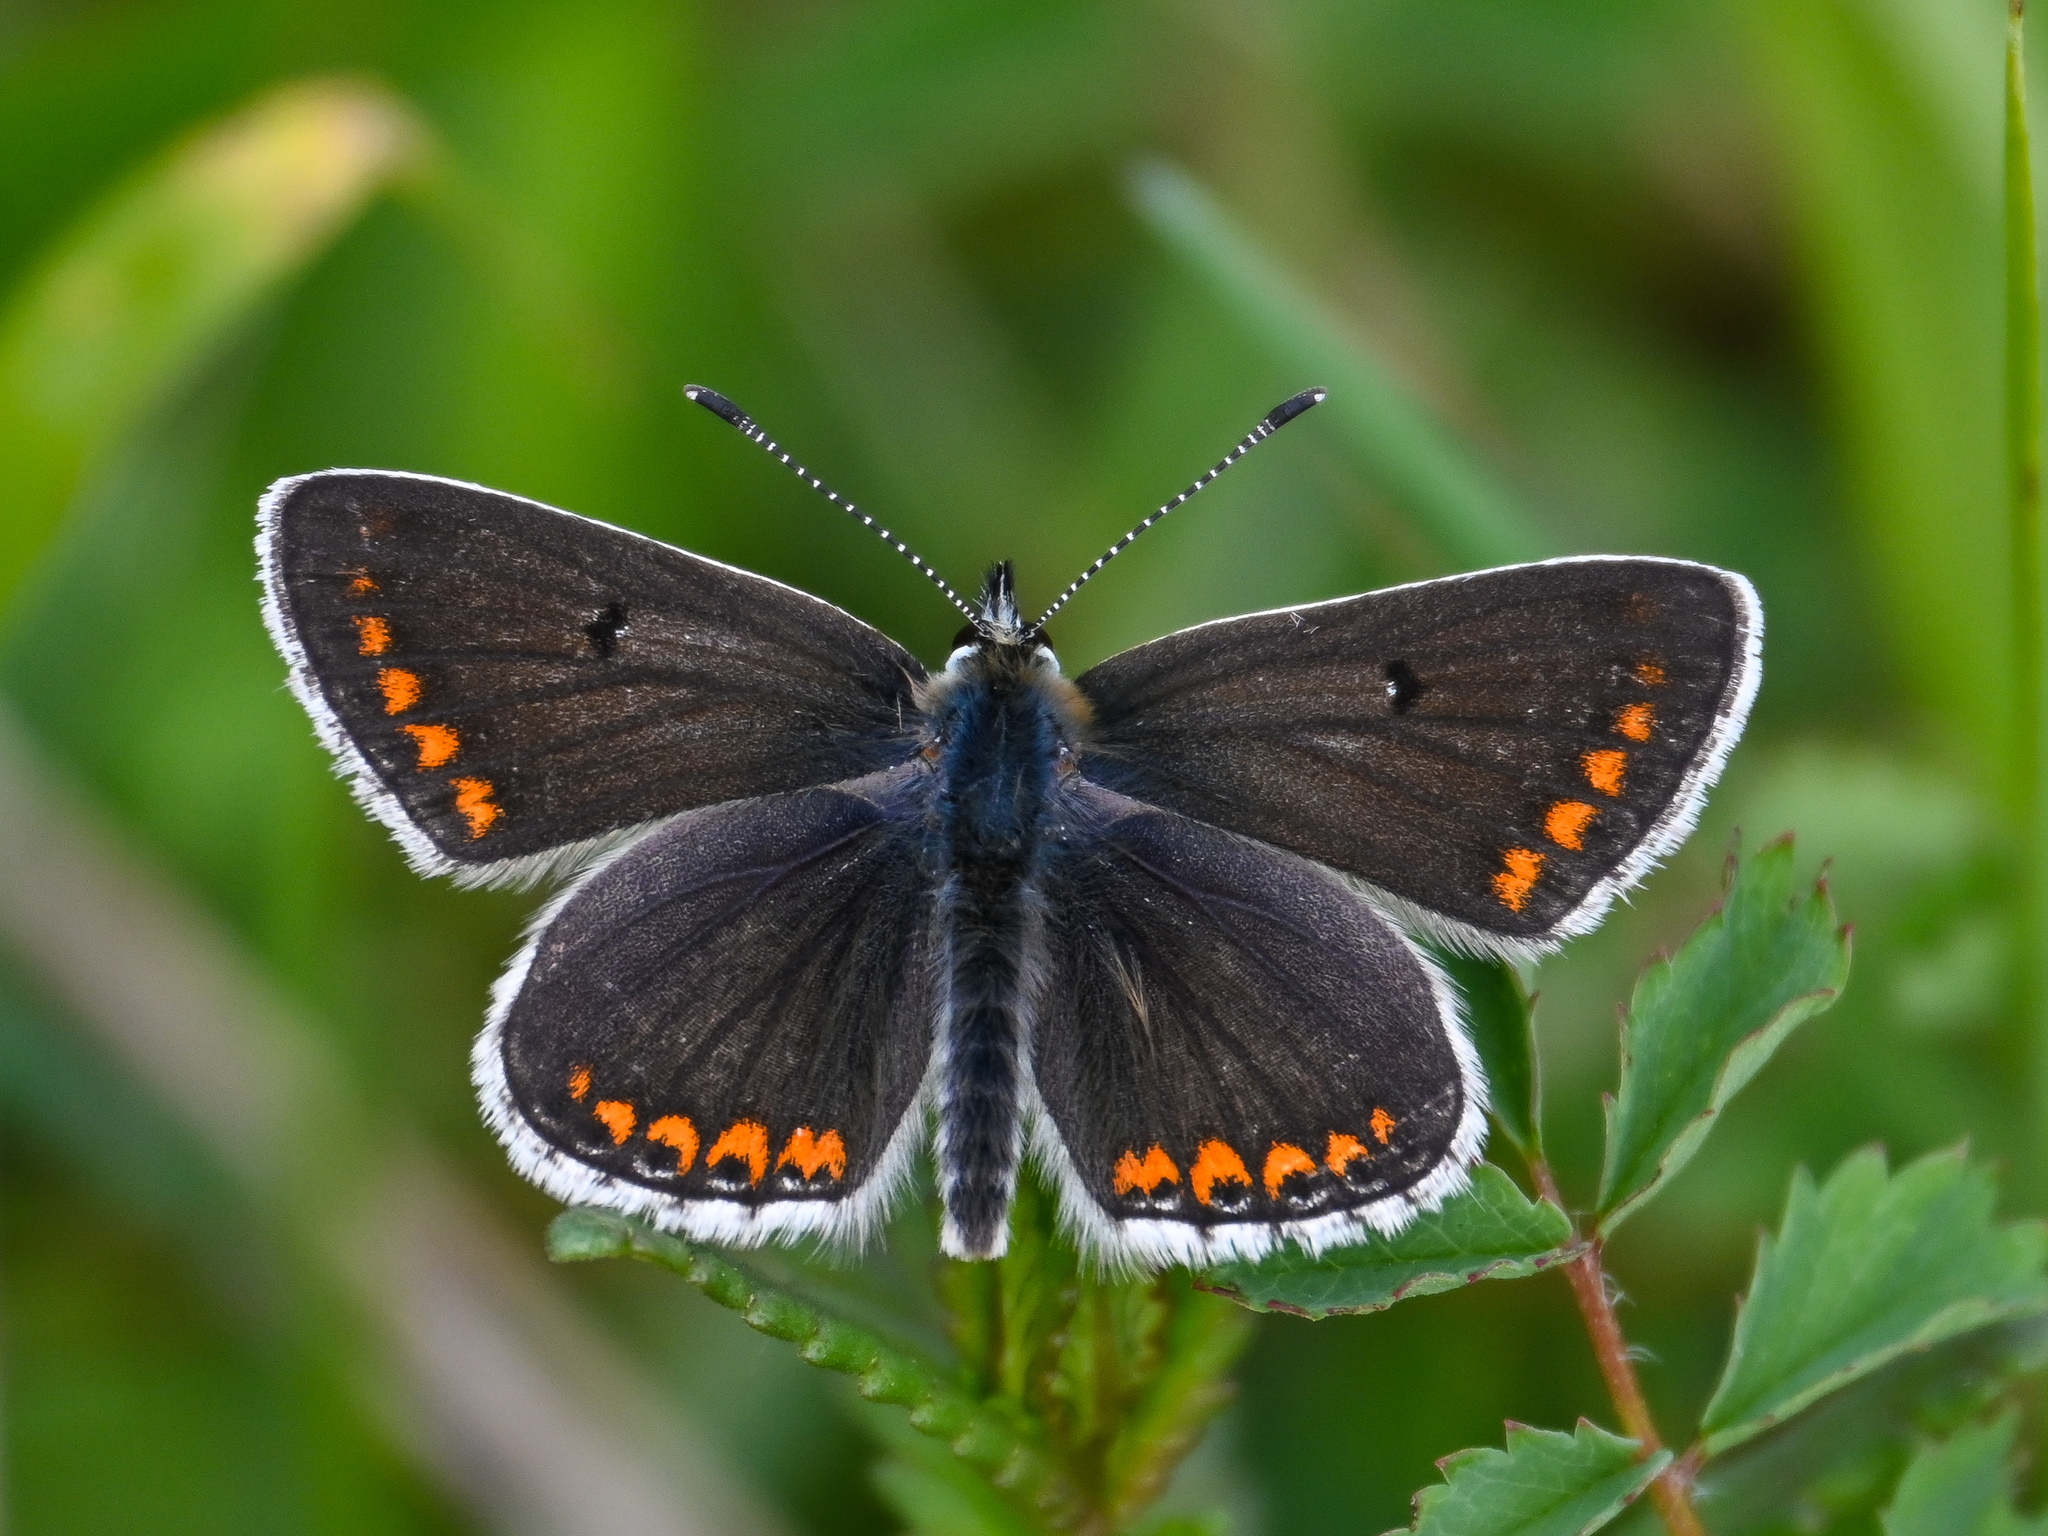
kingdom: Animalia
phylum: Arthropoda
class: Insecta
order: Lepidoptera
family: Lycaenidae
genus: Aricia
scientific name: Aricia agestis
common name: Brown argus
